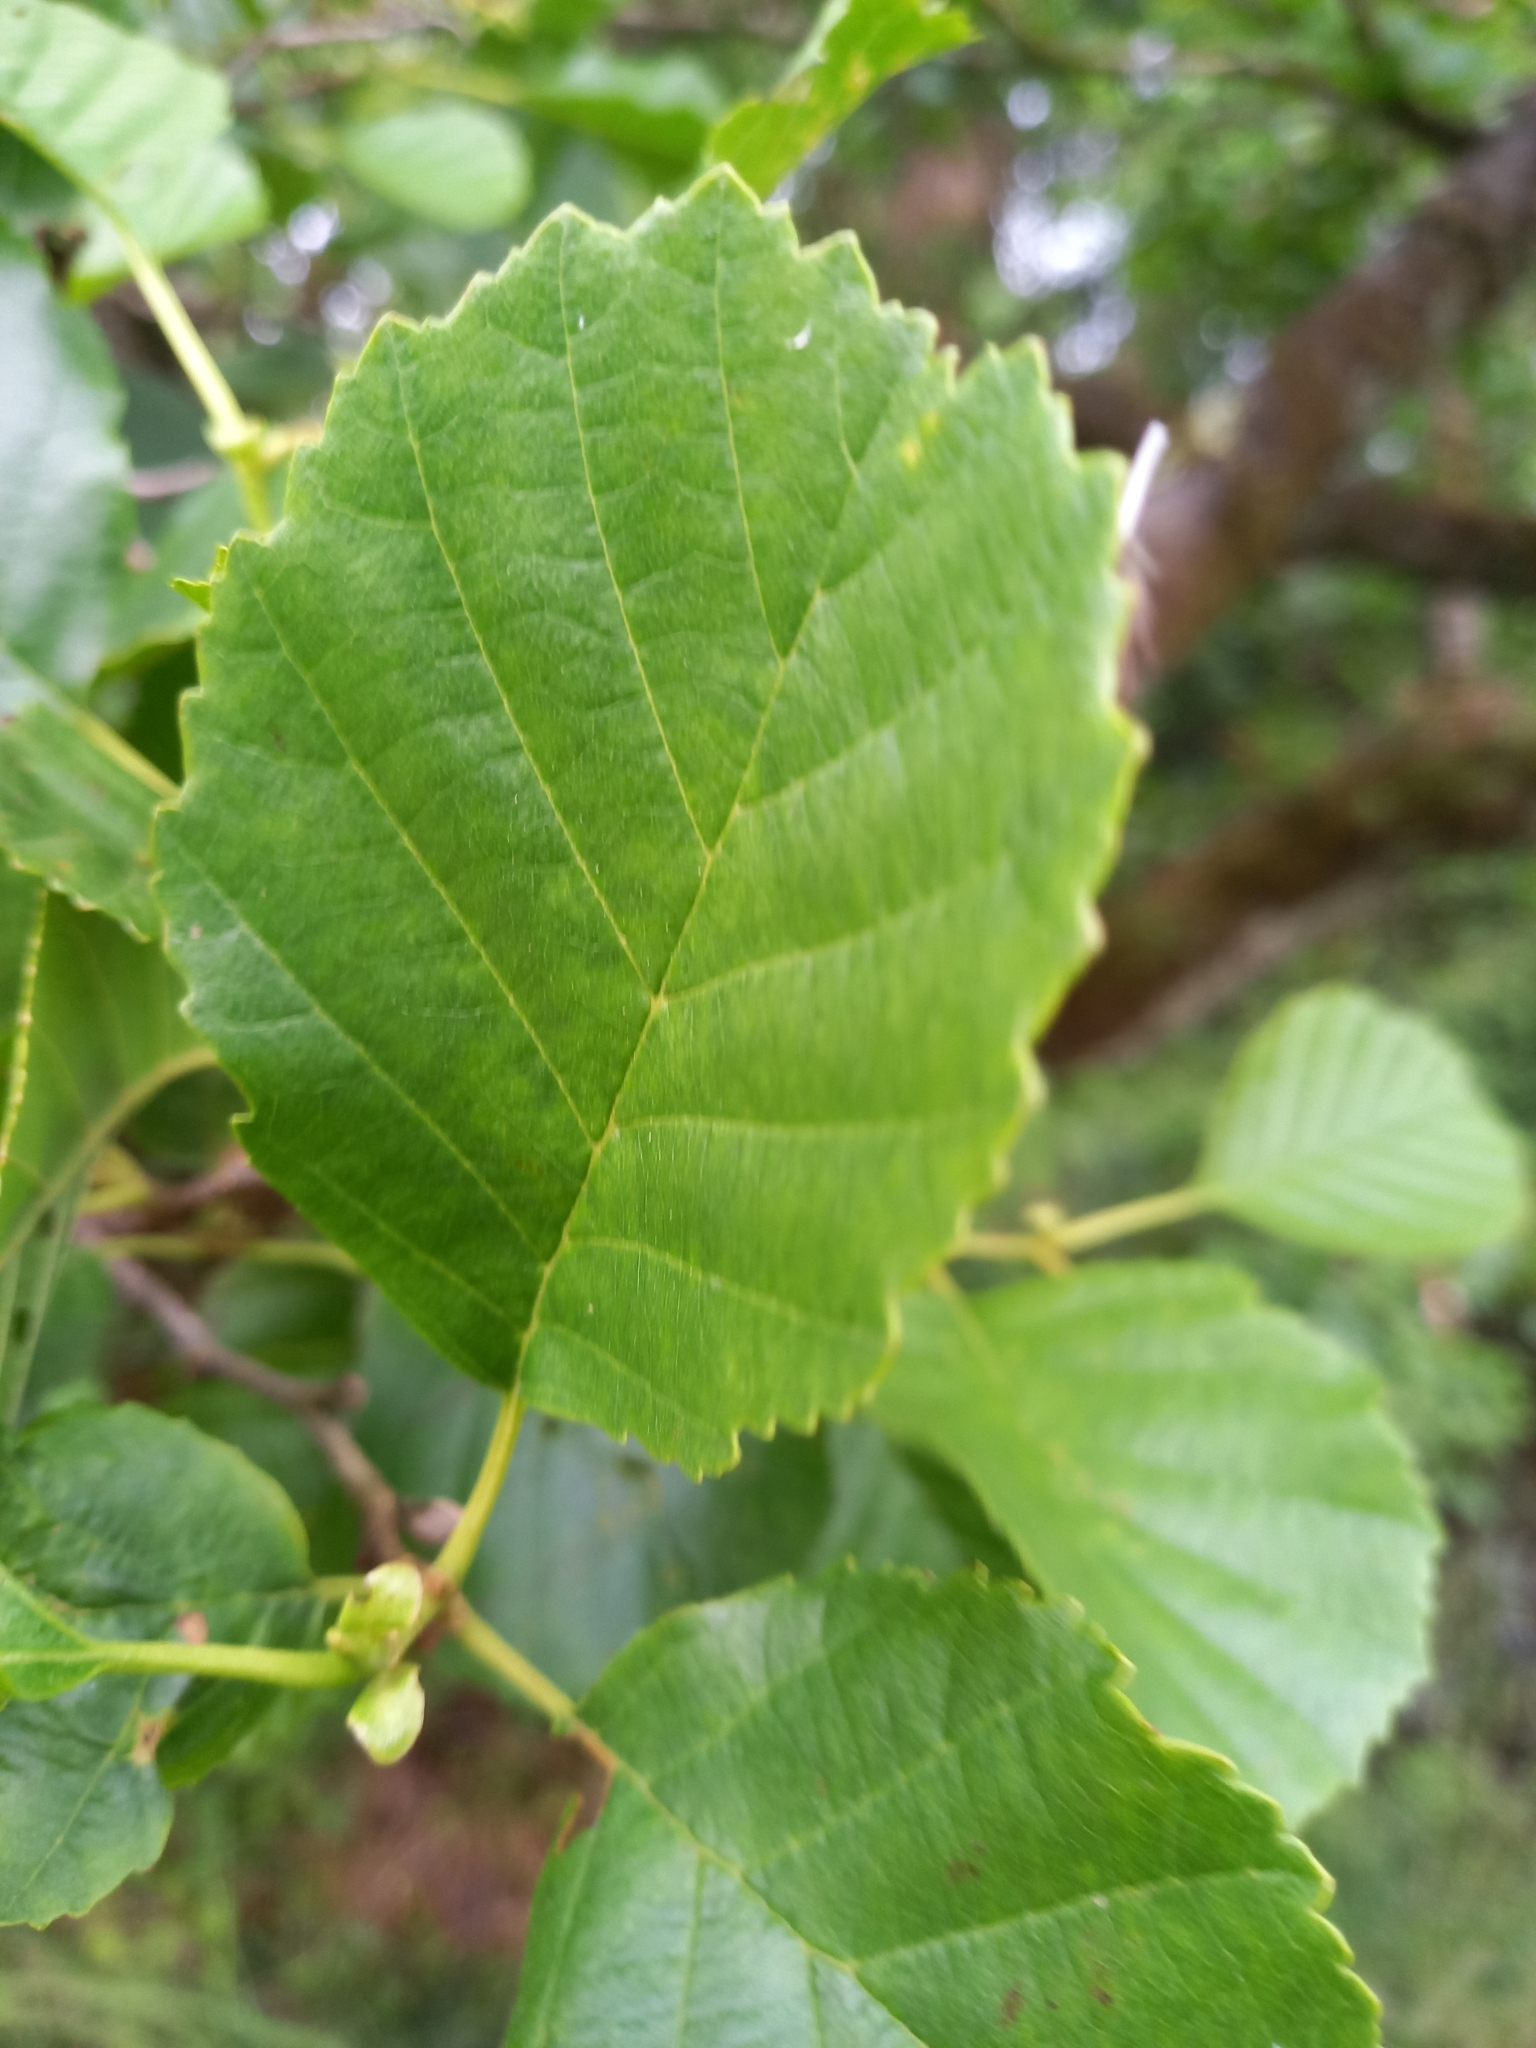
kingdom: Plantae
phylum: Tracheophyta
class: Magnoliopsida
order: Fagales
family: Betulaceae
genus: Alnus
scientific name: Alnus glutinosa
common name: Black alder
